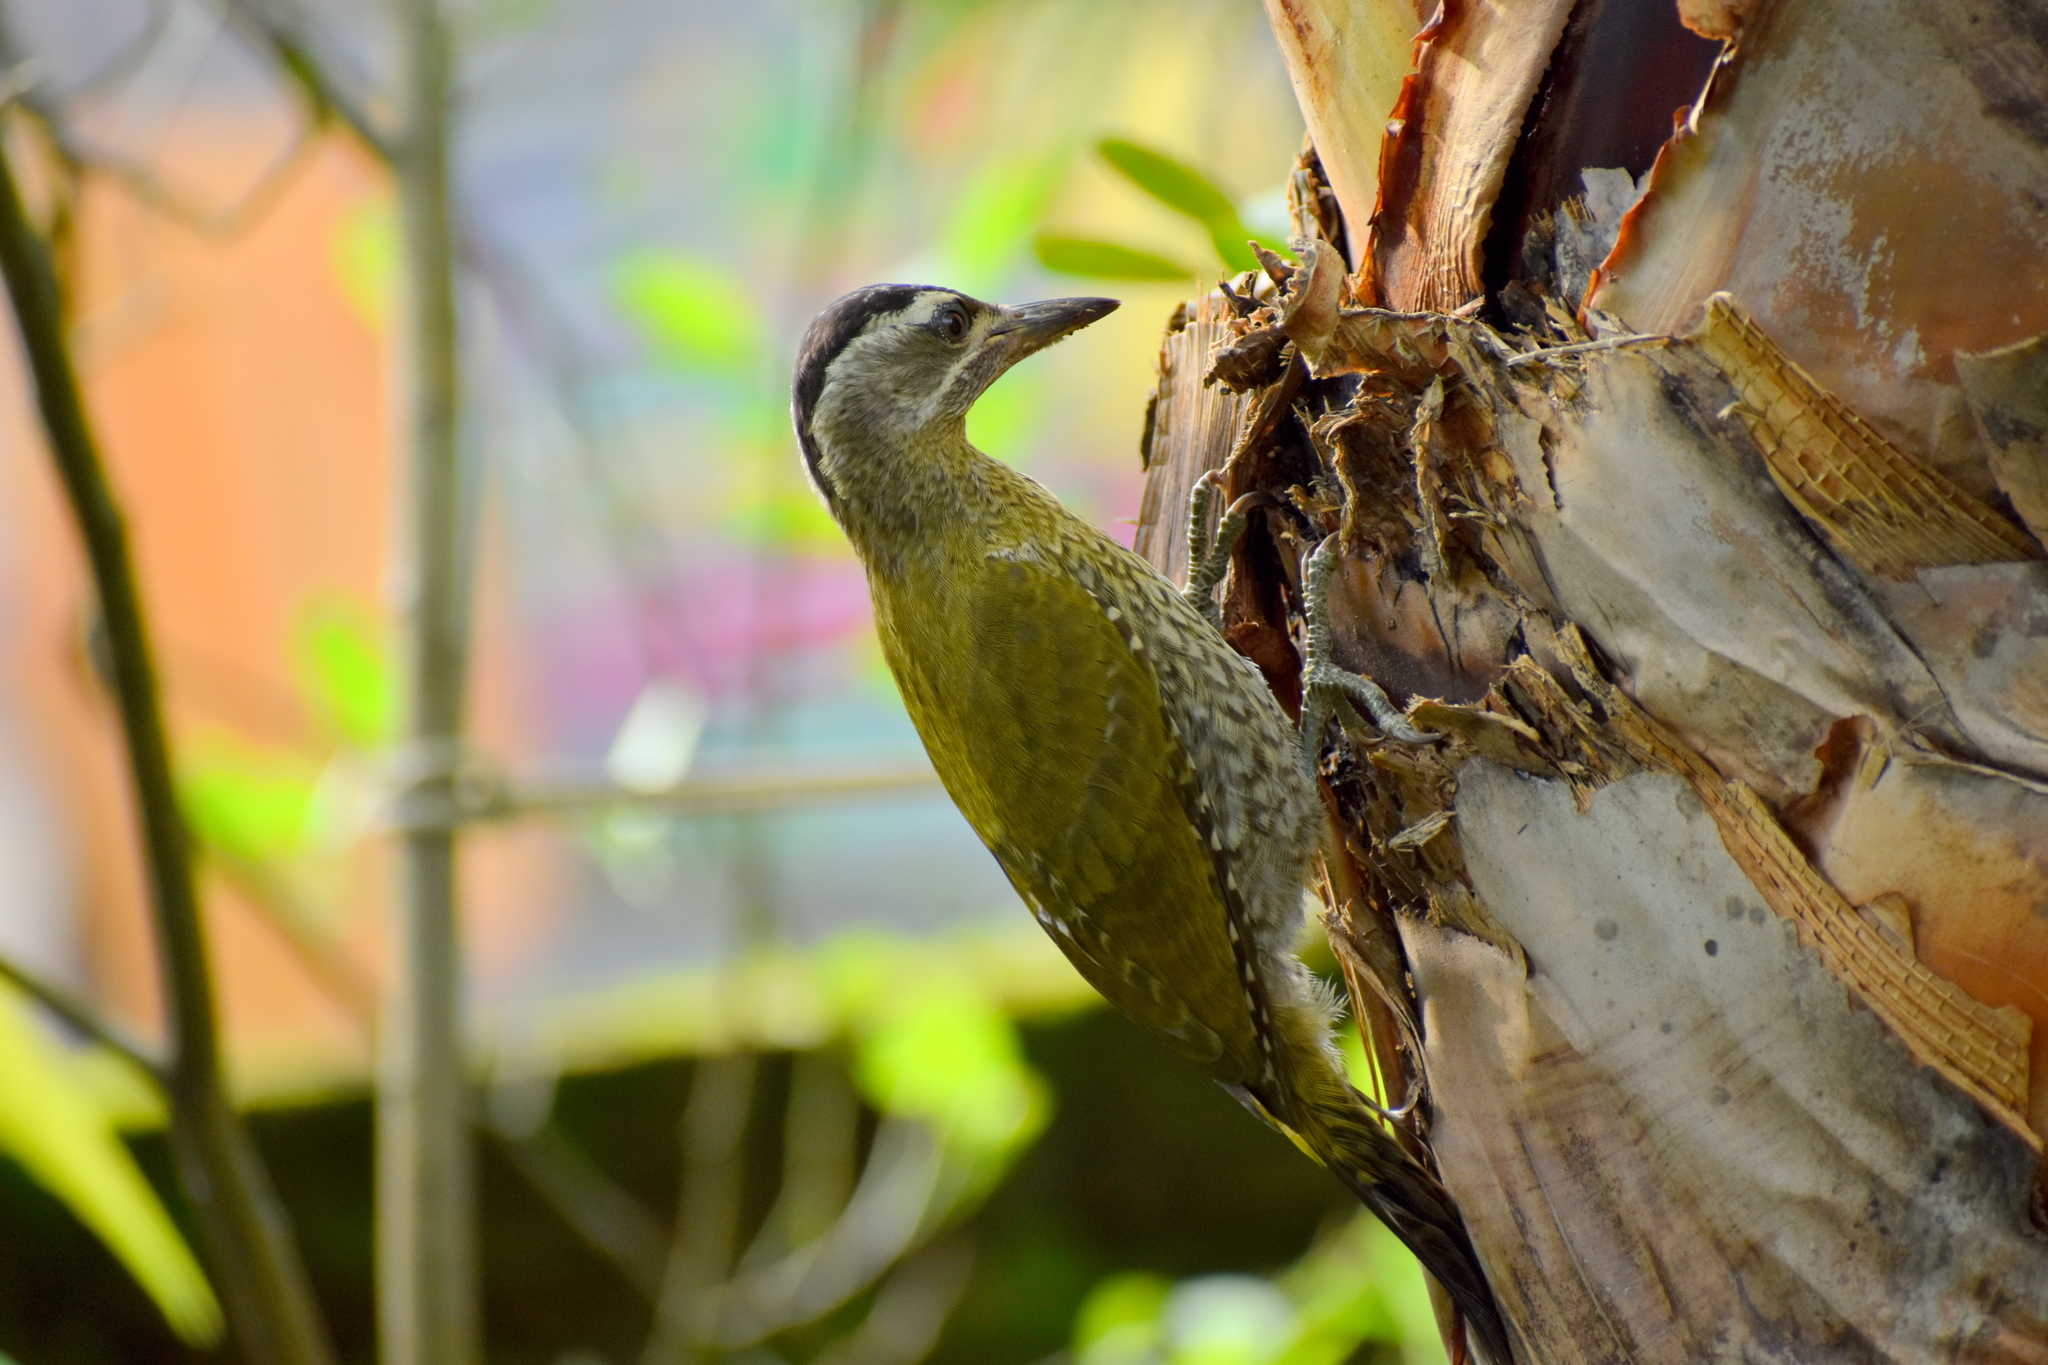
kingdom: Animalia
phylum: Chordata
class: Aves
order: Piciformes
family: Picidae
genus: Picus
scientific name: Picus xanthopygaeus
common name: Streak-throated woodpecker
